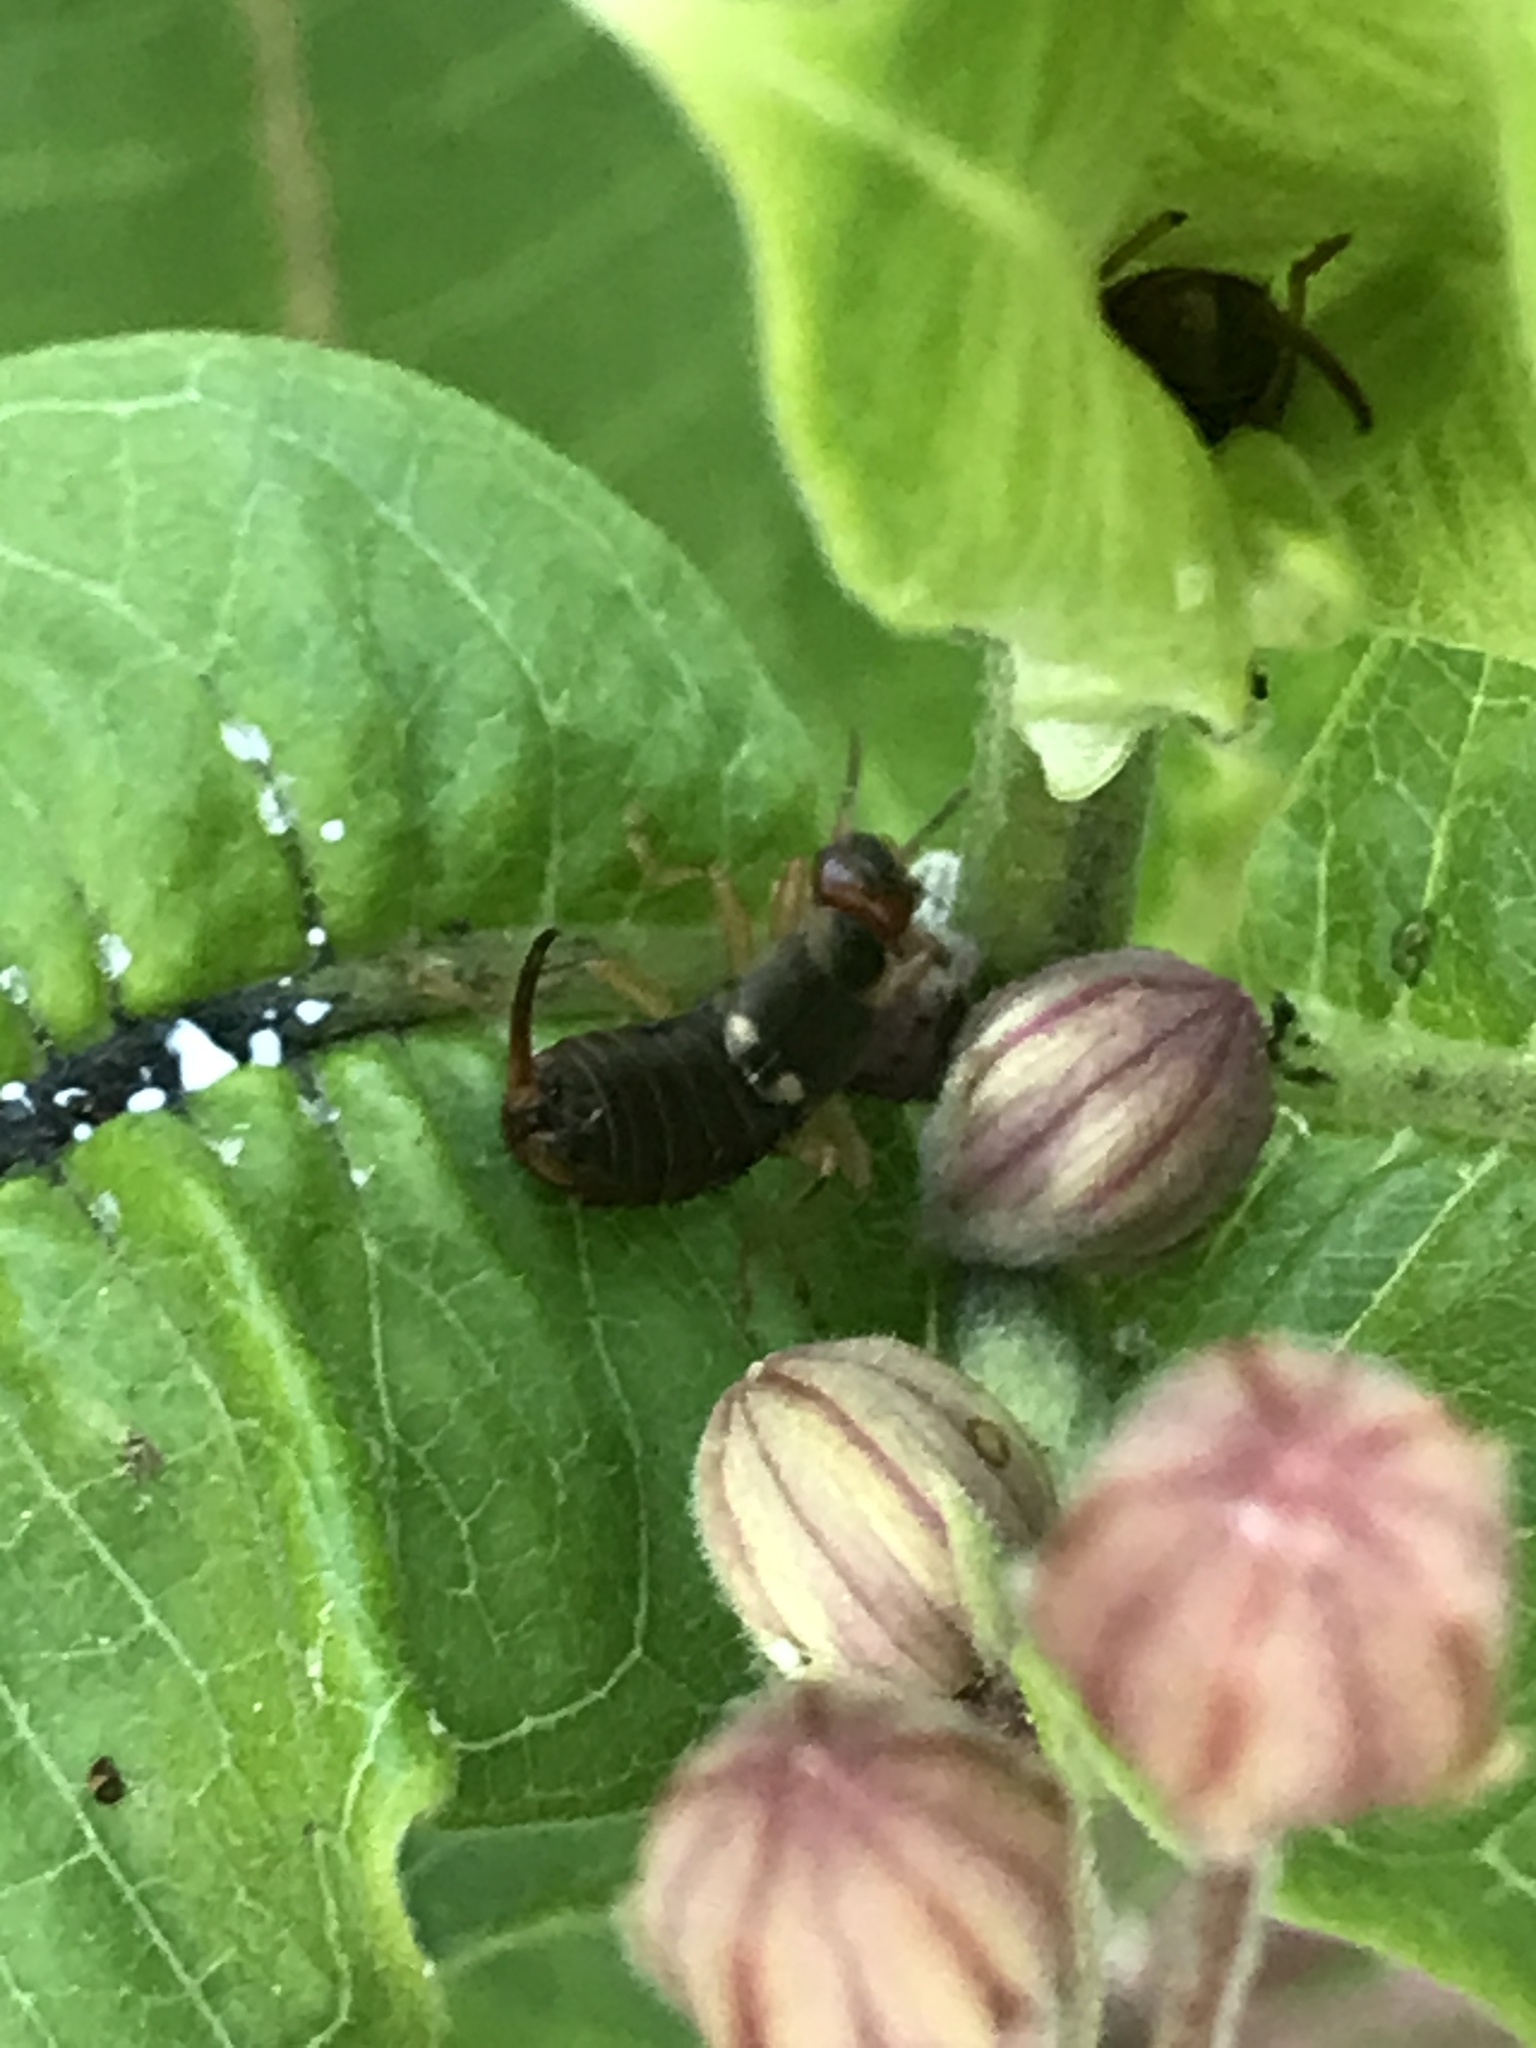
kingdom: Animalia
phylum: Arthropoda
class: Insecta
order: Dermaptera
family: Forficulidae
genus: Forficula
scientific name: Forficula
